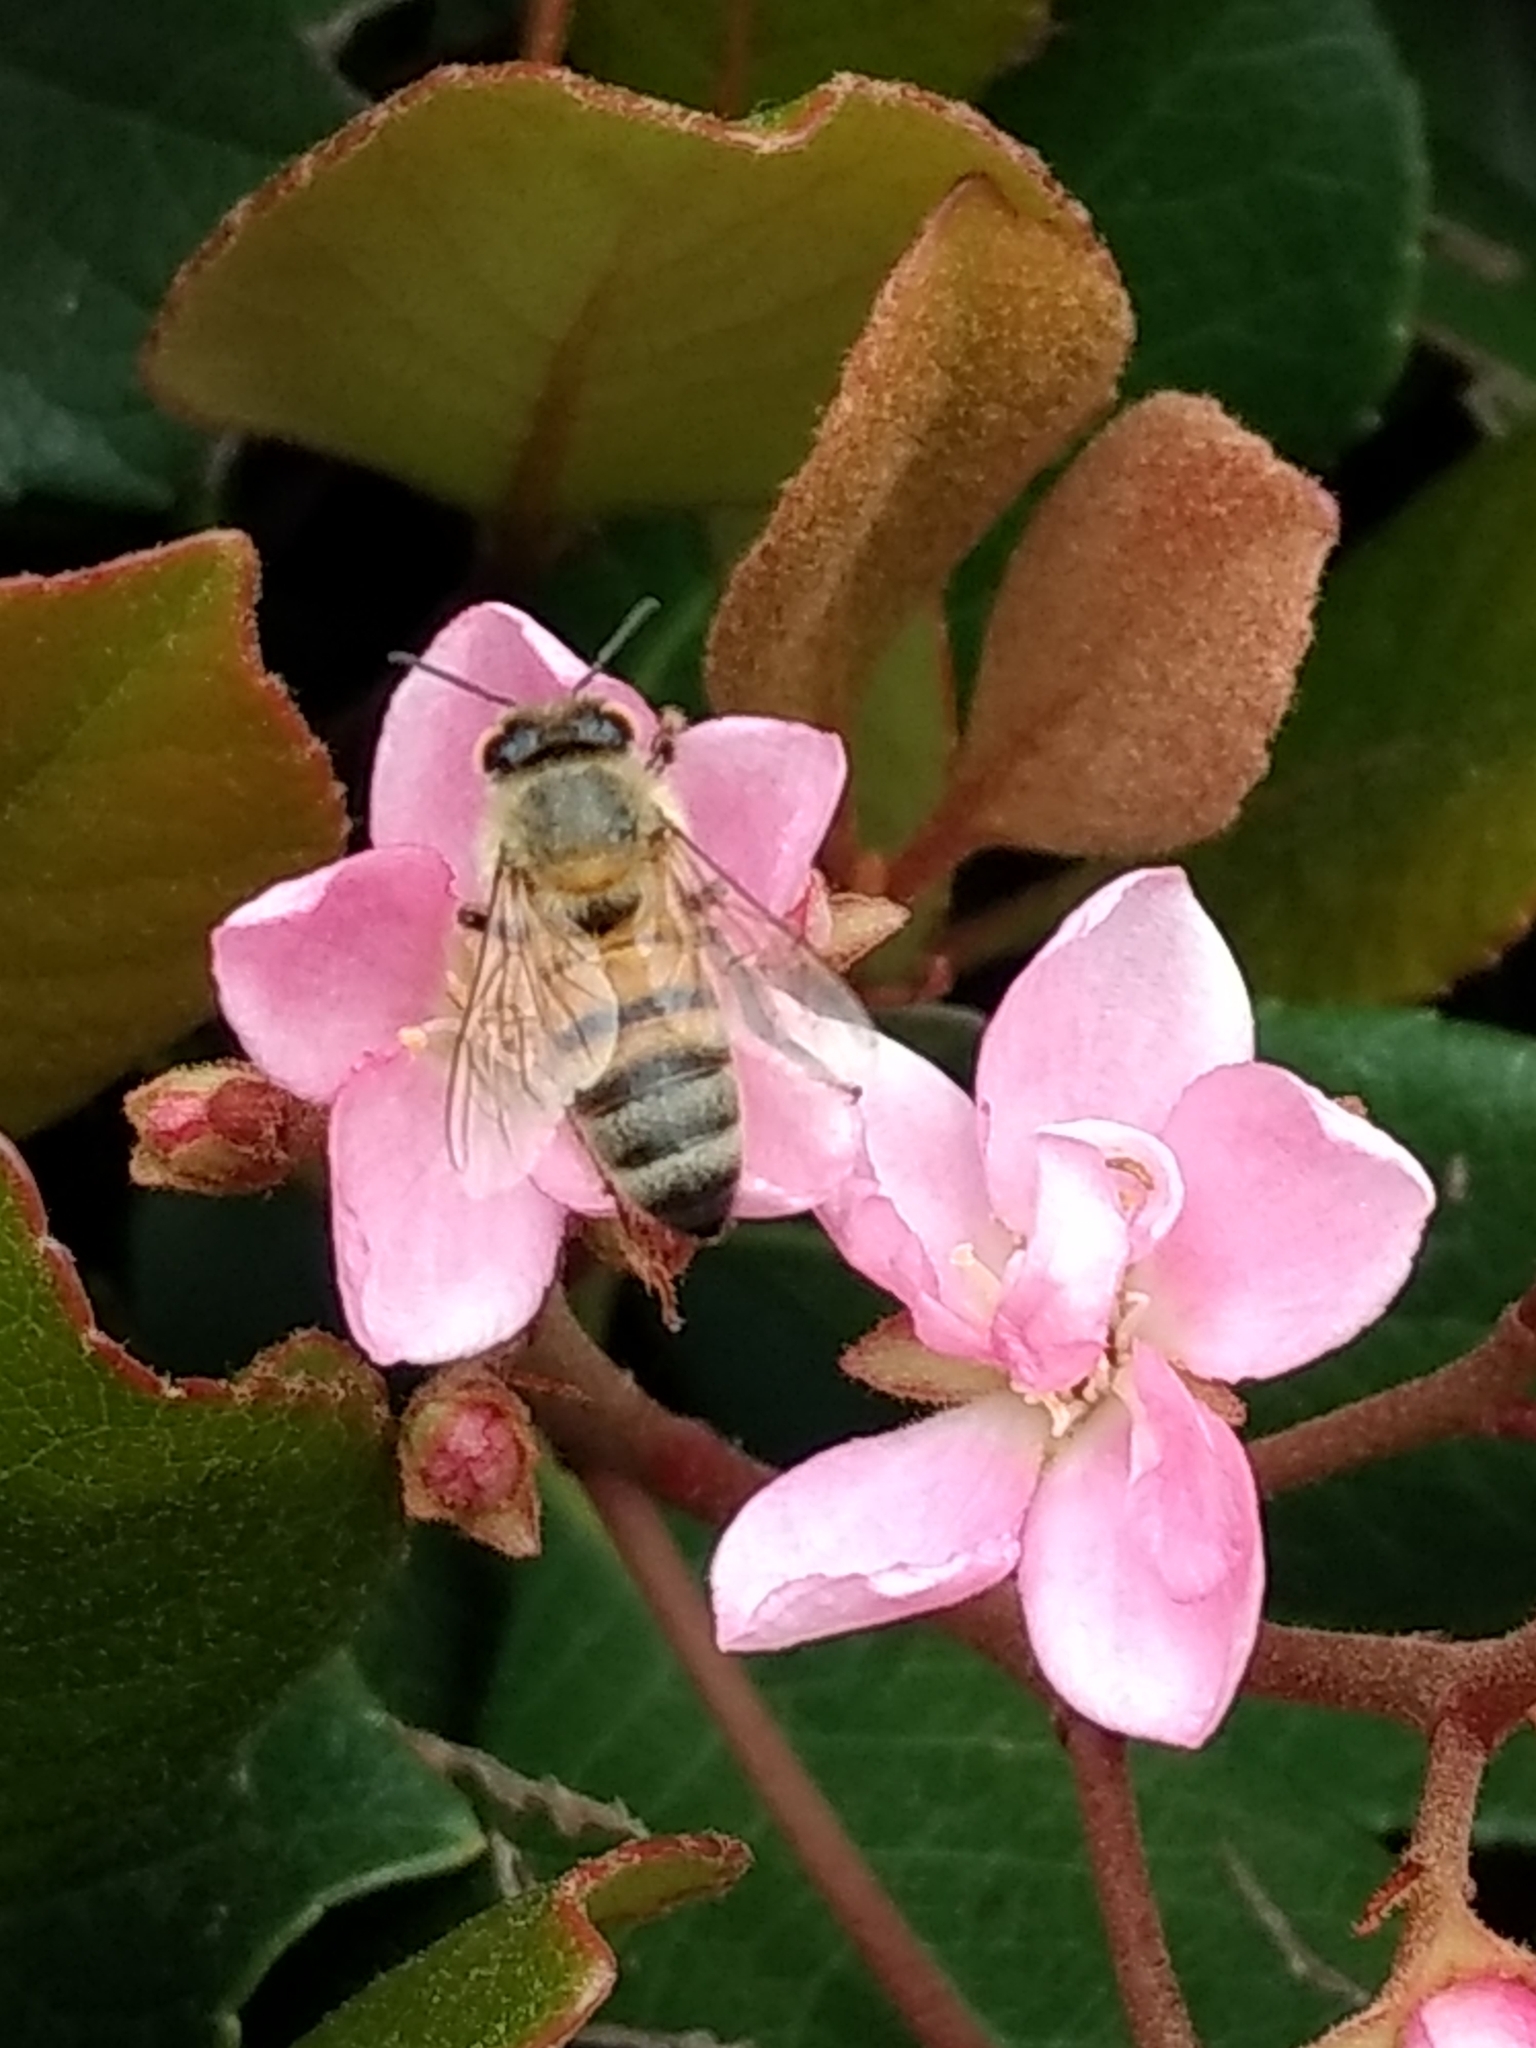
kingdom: Animalia
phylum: Arthropoda
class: Insecta
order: Hymenoptera
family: Apidae
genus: Apis
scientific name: Apis mellifera
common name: Honey bee
